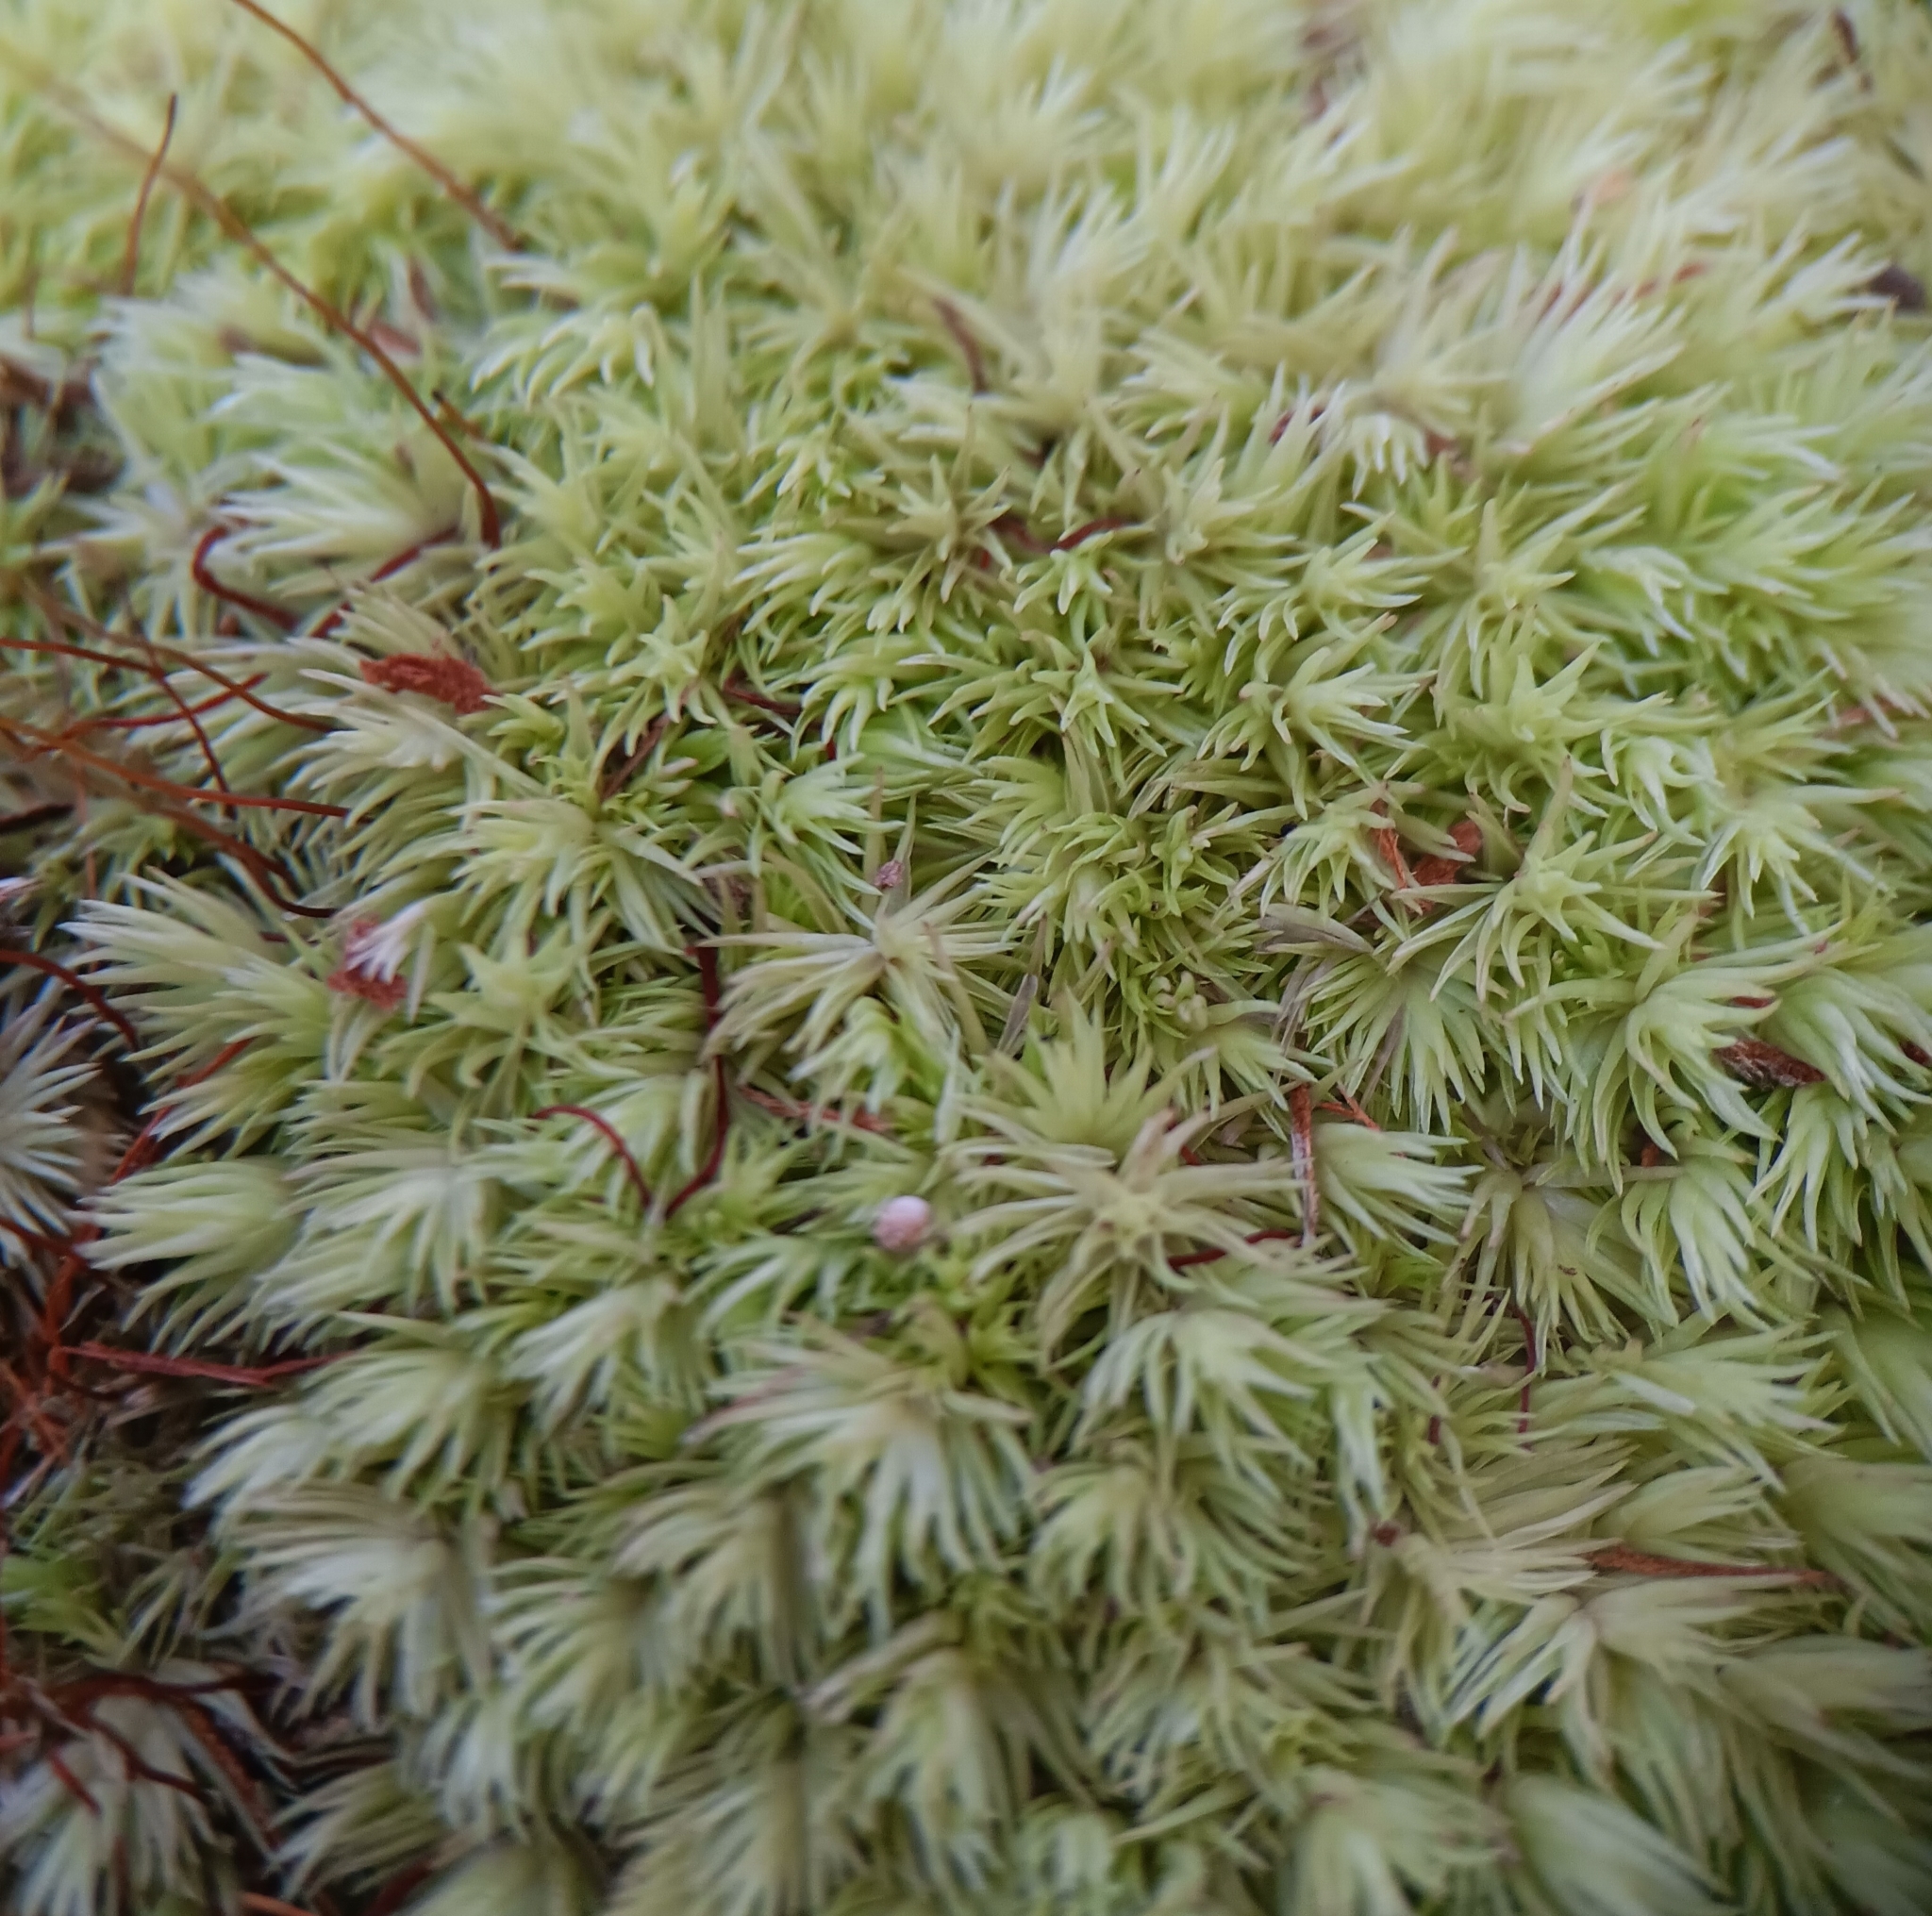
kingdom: Plantae
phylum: Bryophyta
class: Bryopsida
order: Dicranales
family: Leucobryaceae
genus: Leucobryum
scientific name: Leucobryum gracile
